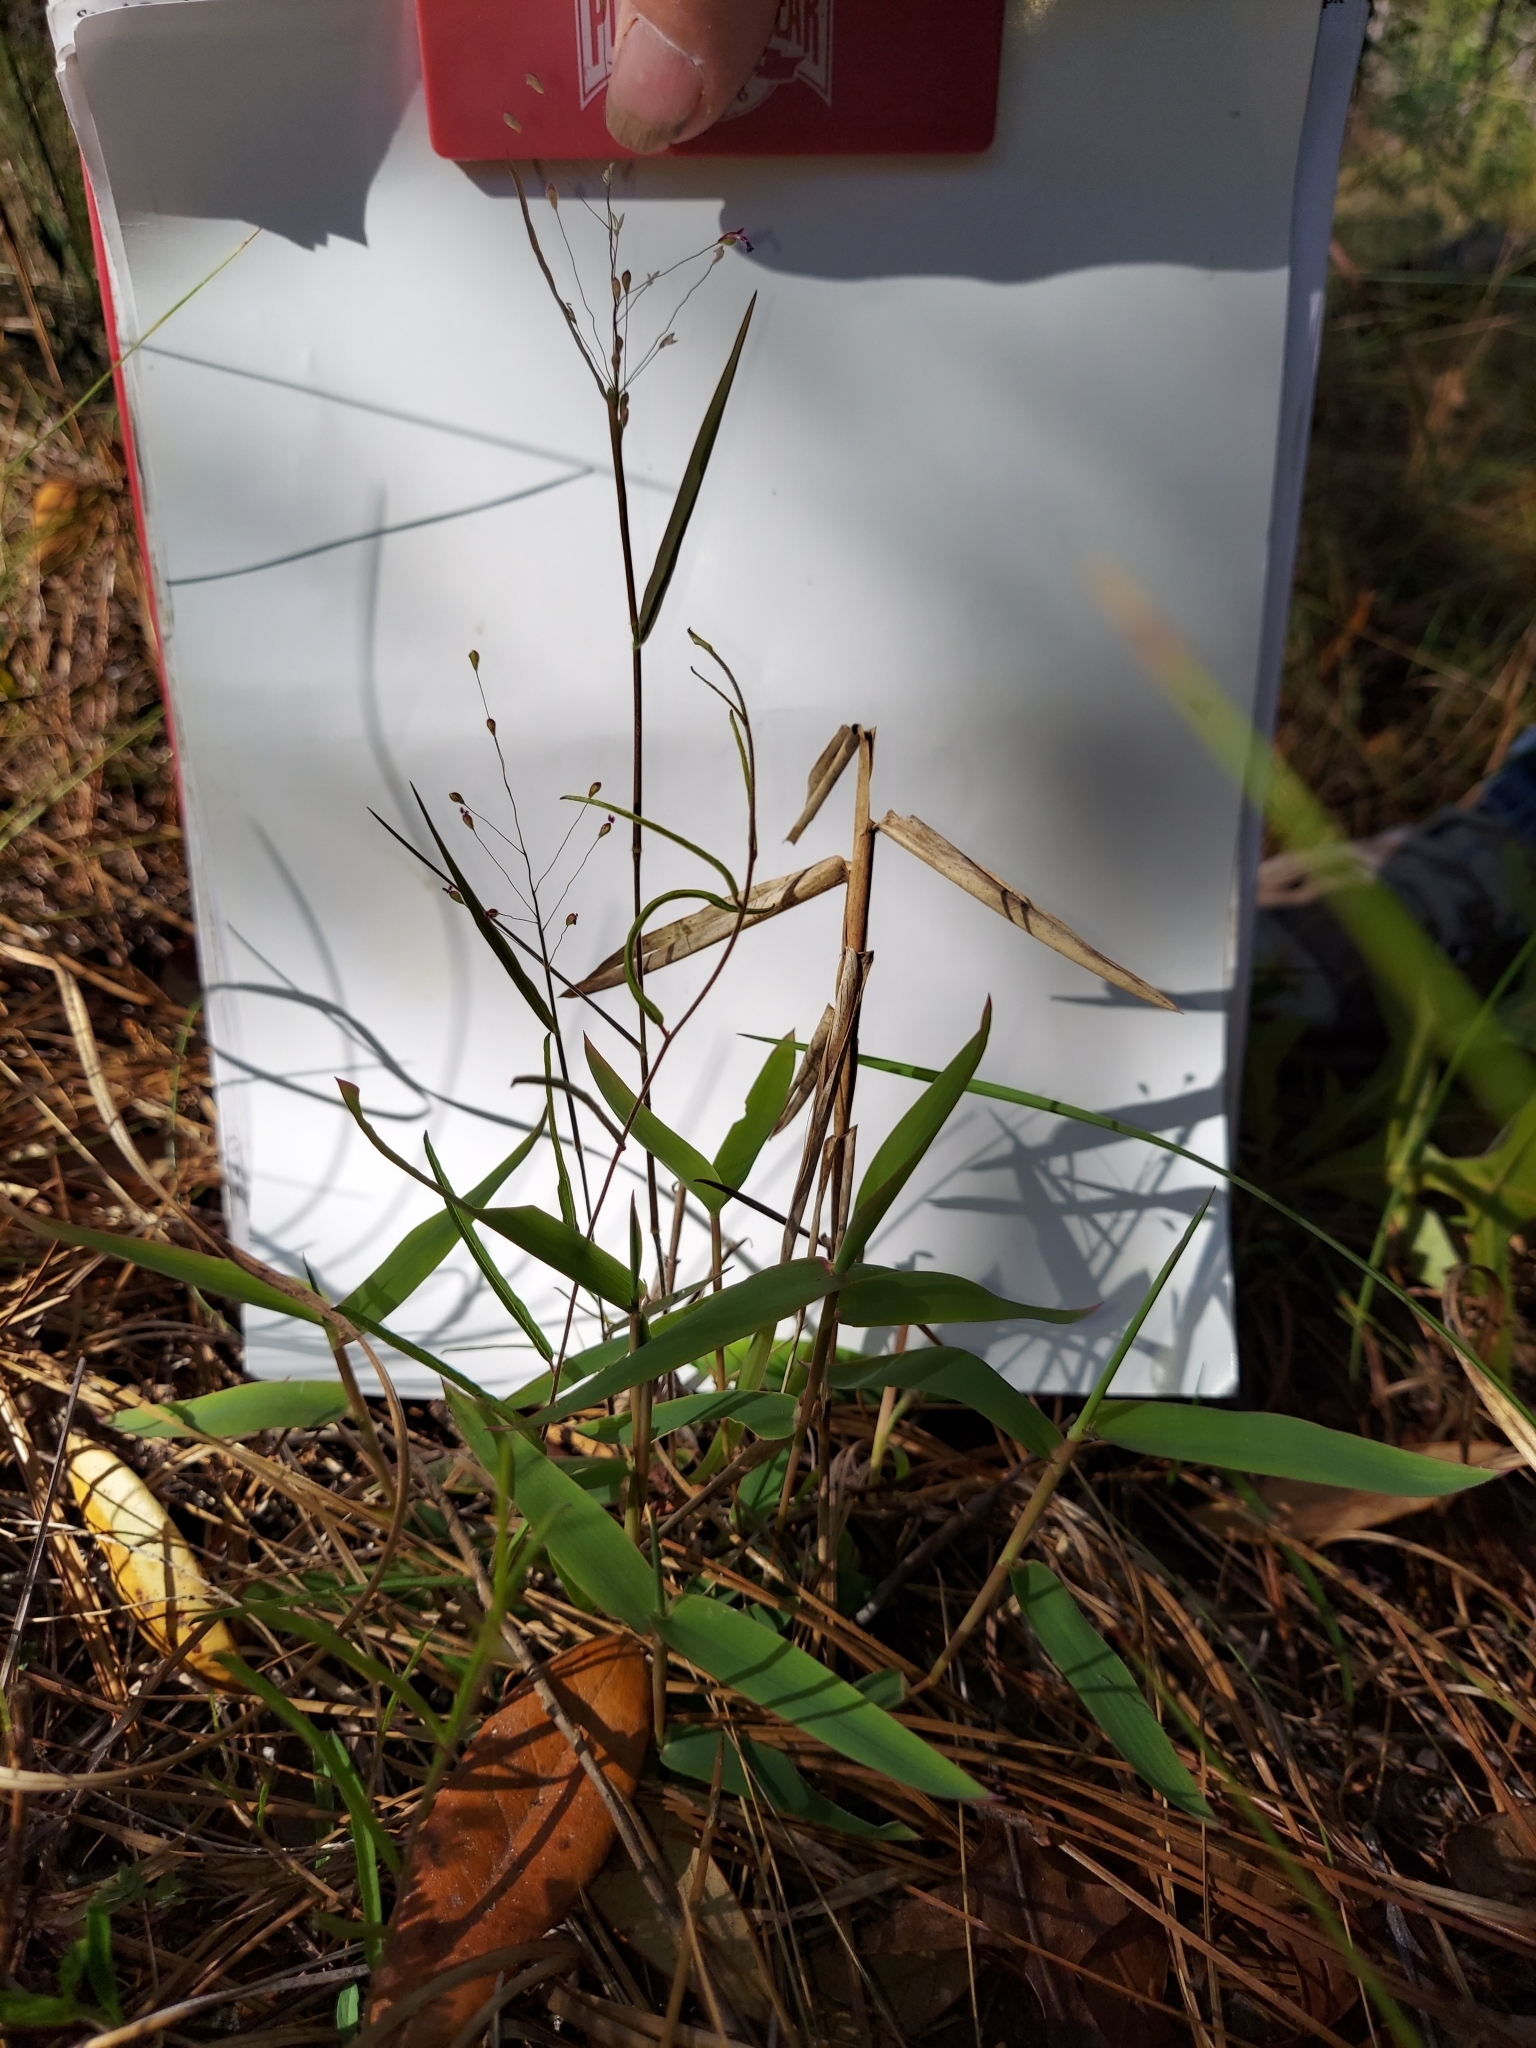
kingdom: Plantae
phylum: Tracheophyta
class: Liliopsida
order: Poales
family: Poaceae
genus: Dichanthelium
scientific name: Dichanthelium malacon
